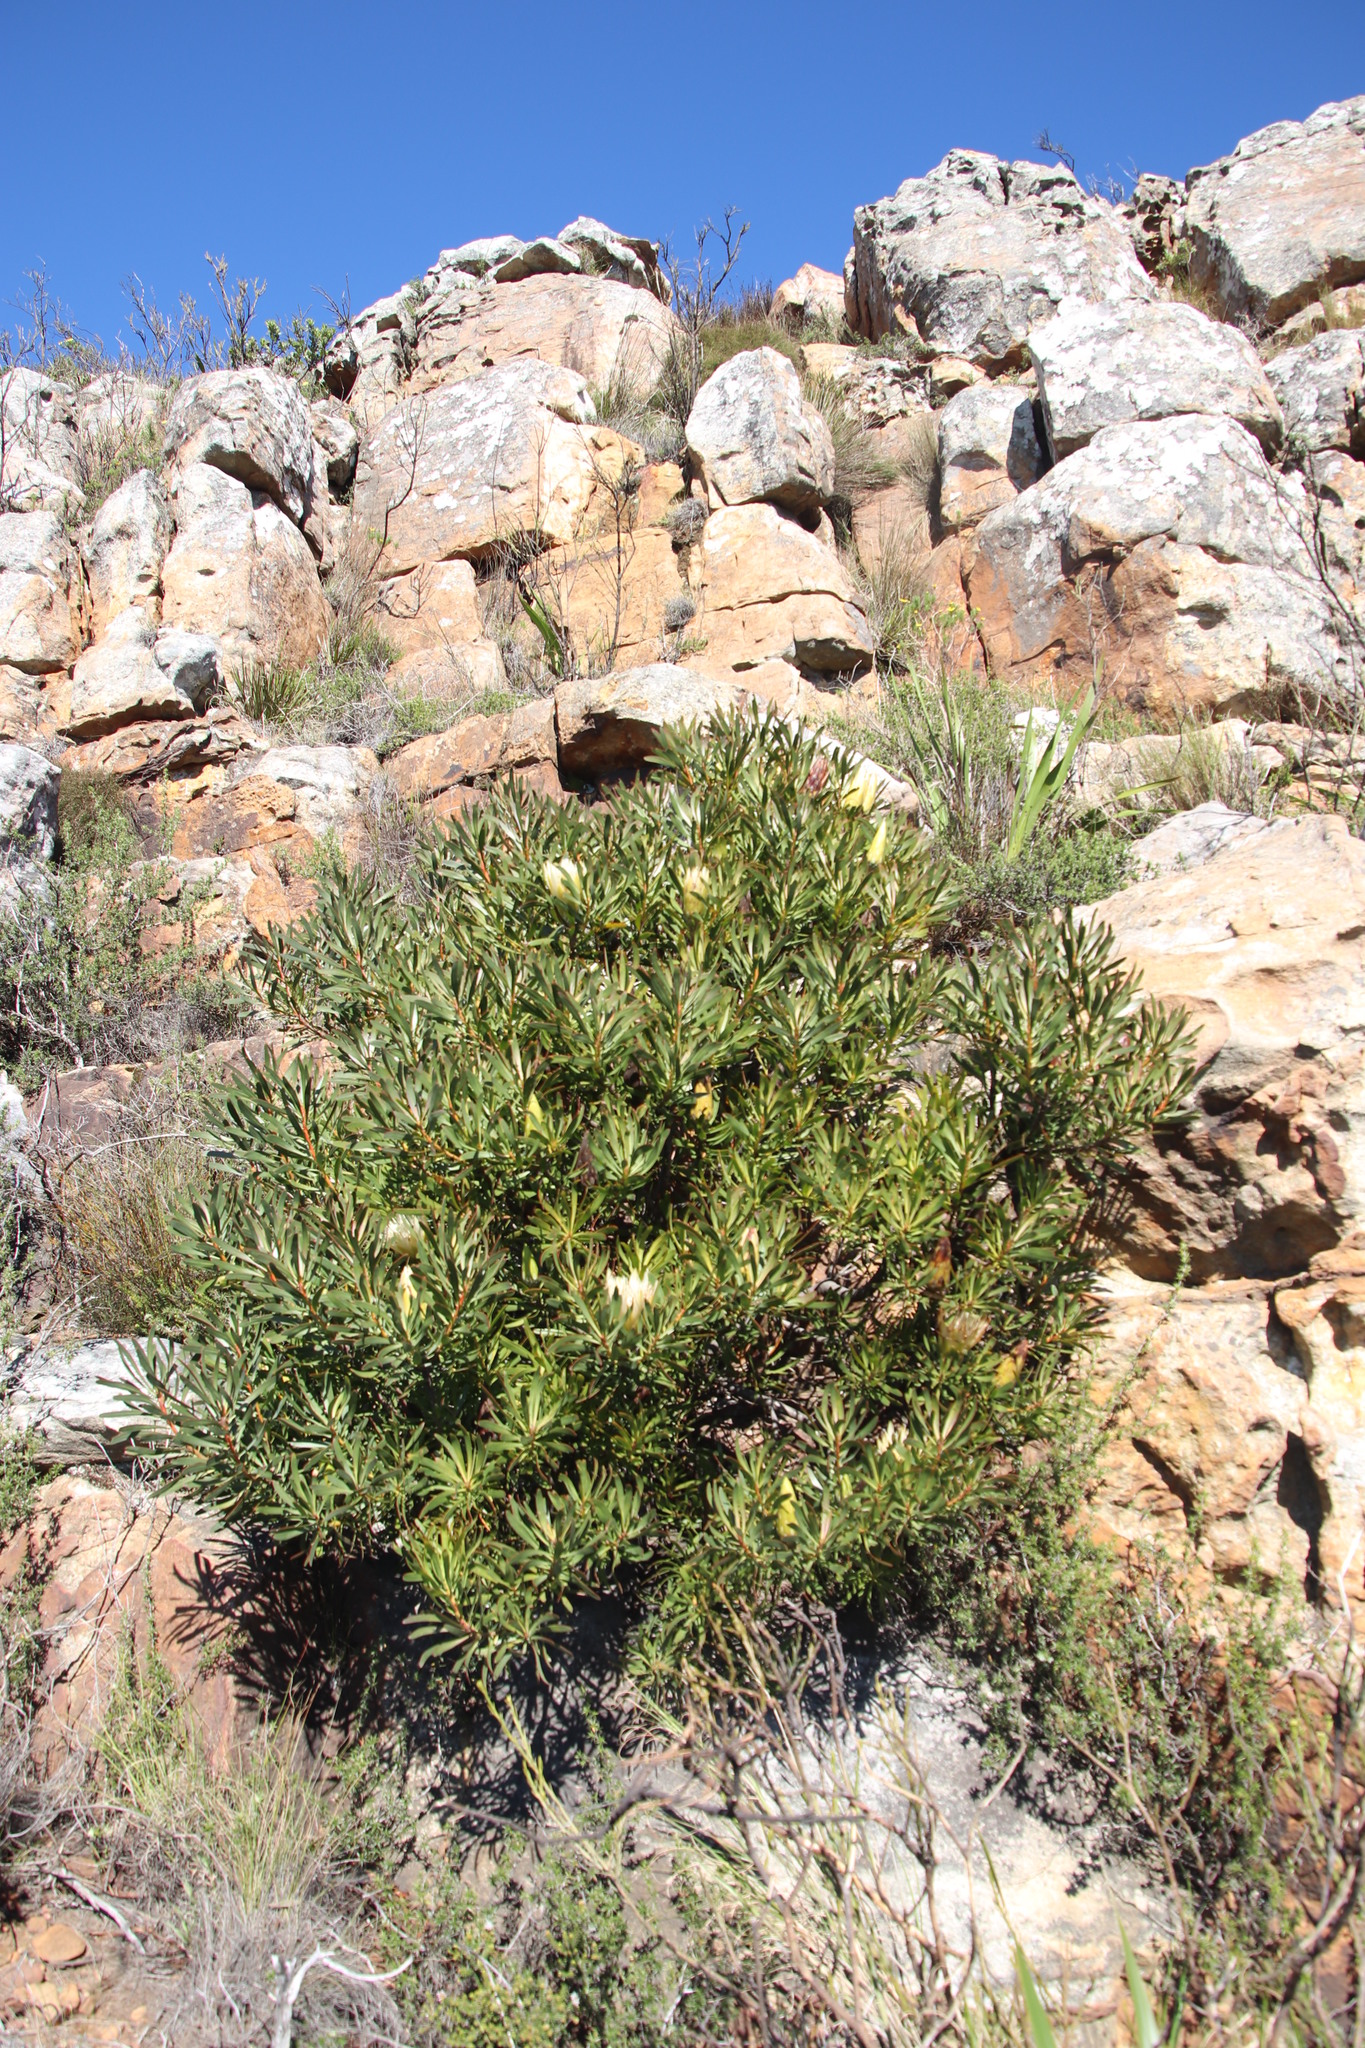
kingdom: Plantae
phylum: Tracheophyta
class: Magnoliopsida
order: Proteales
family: Proteaceae
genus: Protea
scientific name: Protea repens
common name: Sugarbush
